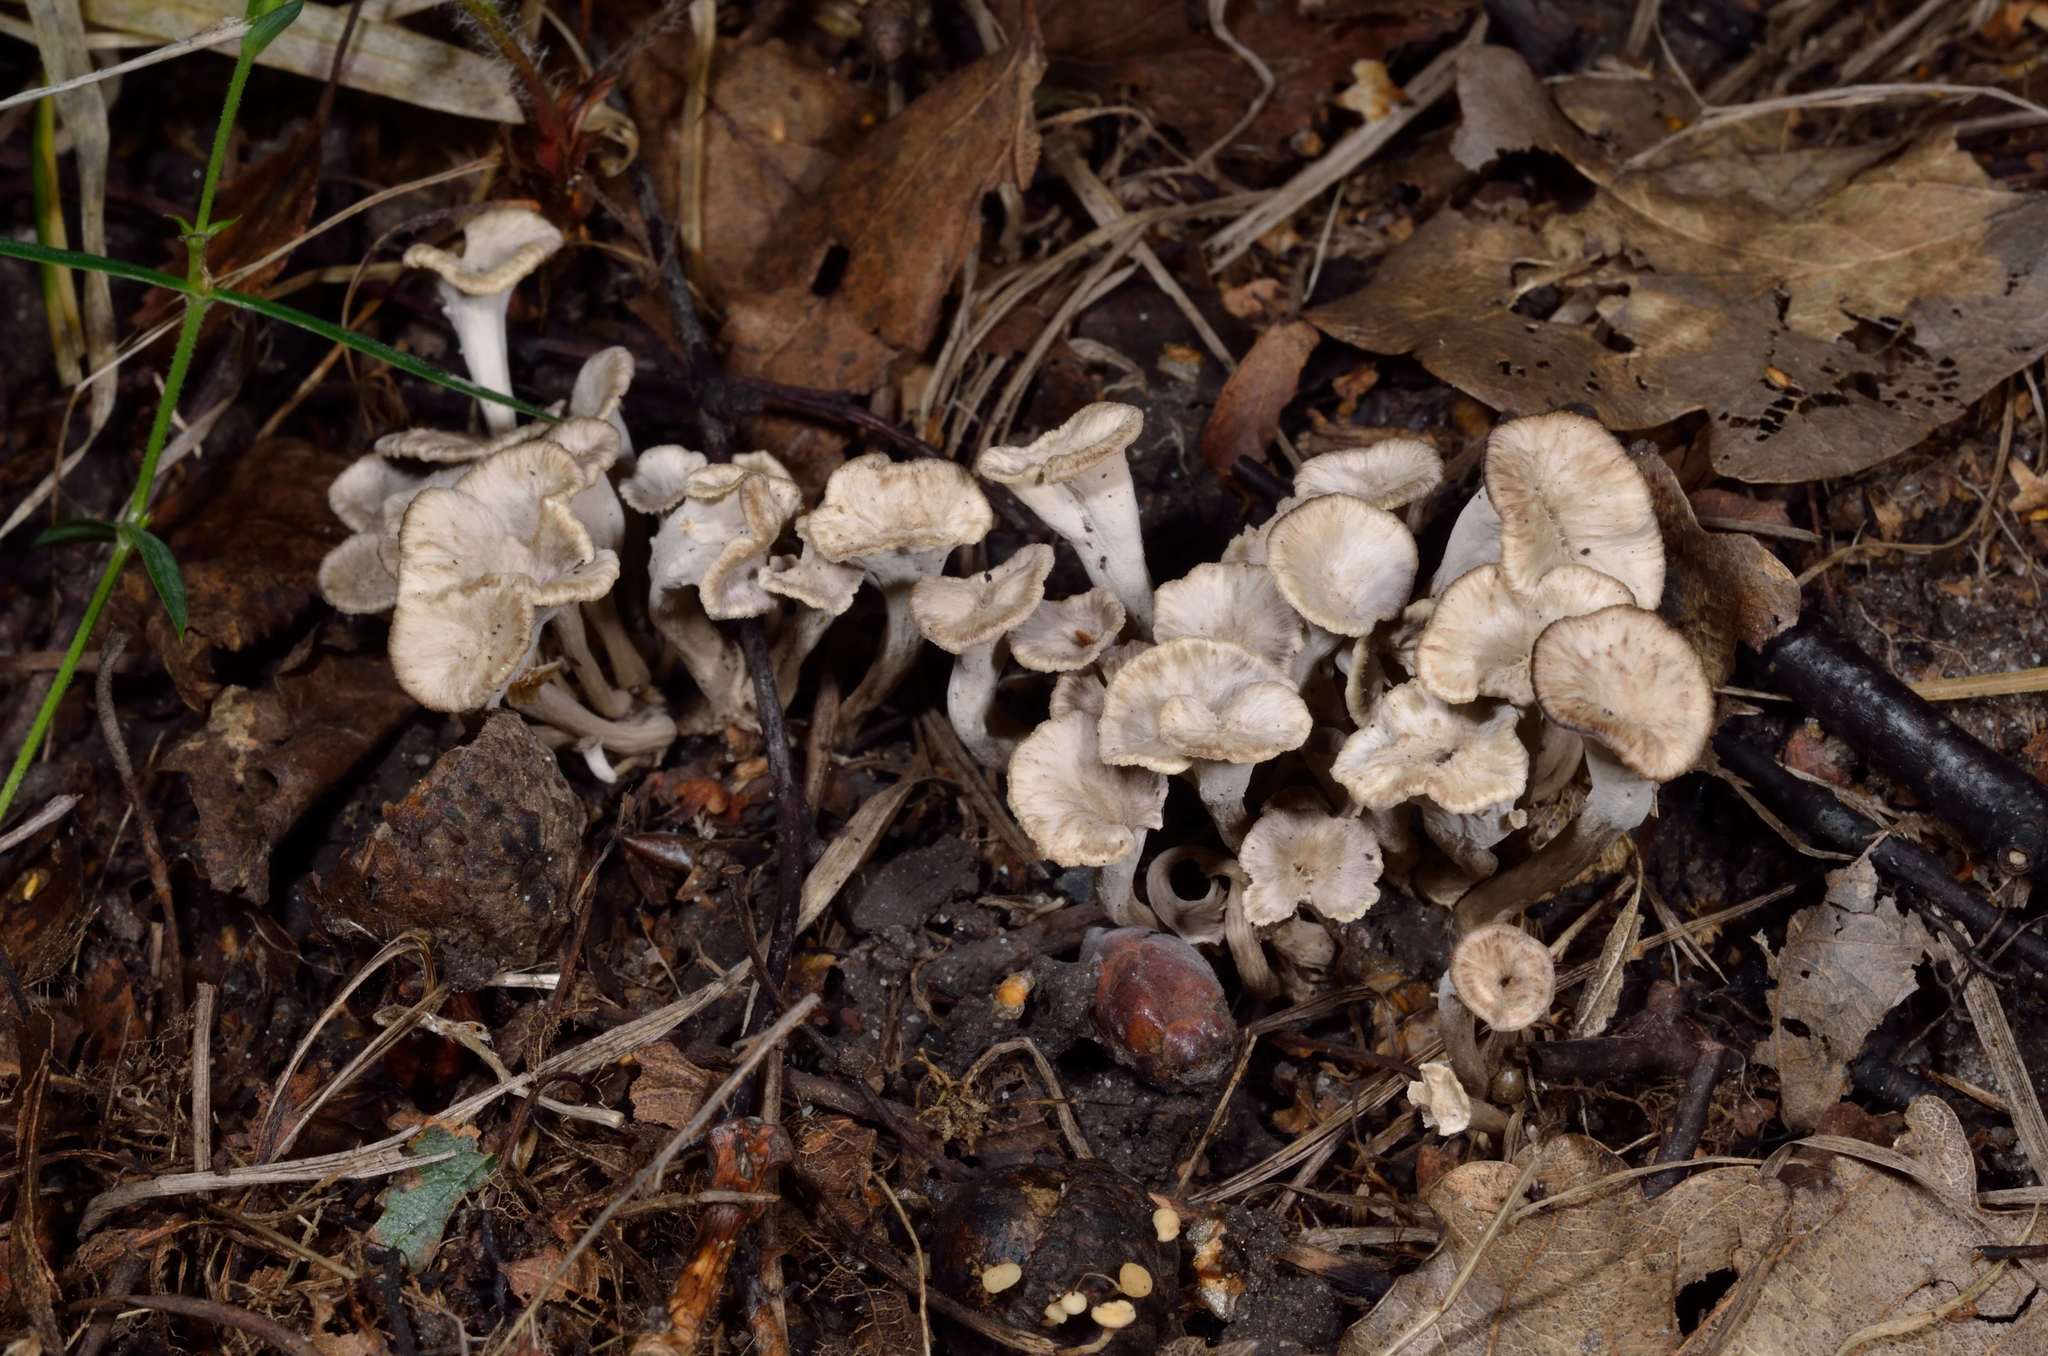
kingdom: Fungi
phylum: Basidiomycota
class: Agaricomycetes
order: Cantharellales
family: Hydnaceae
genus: Craterellus
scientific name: Craterellus undulatus
